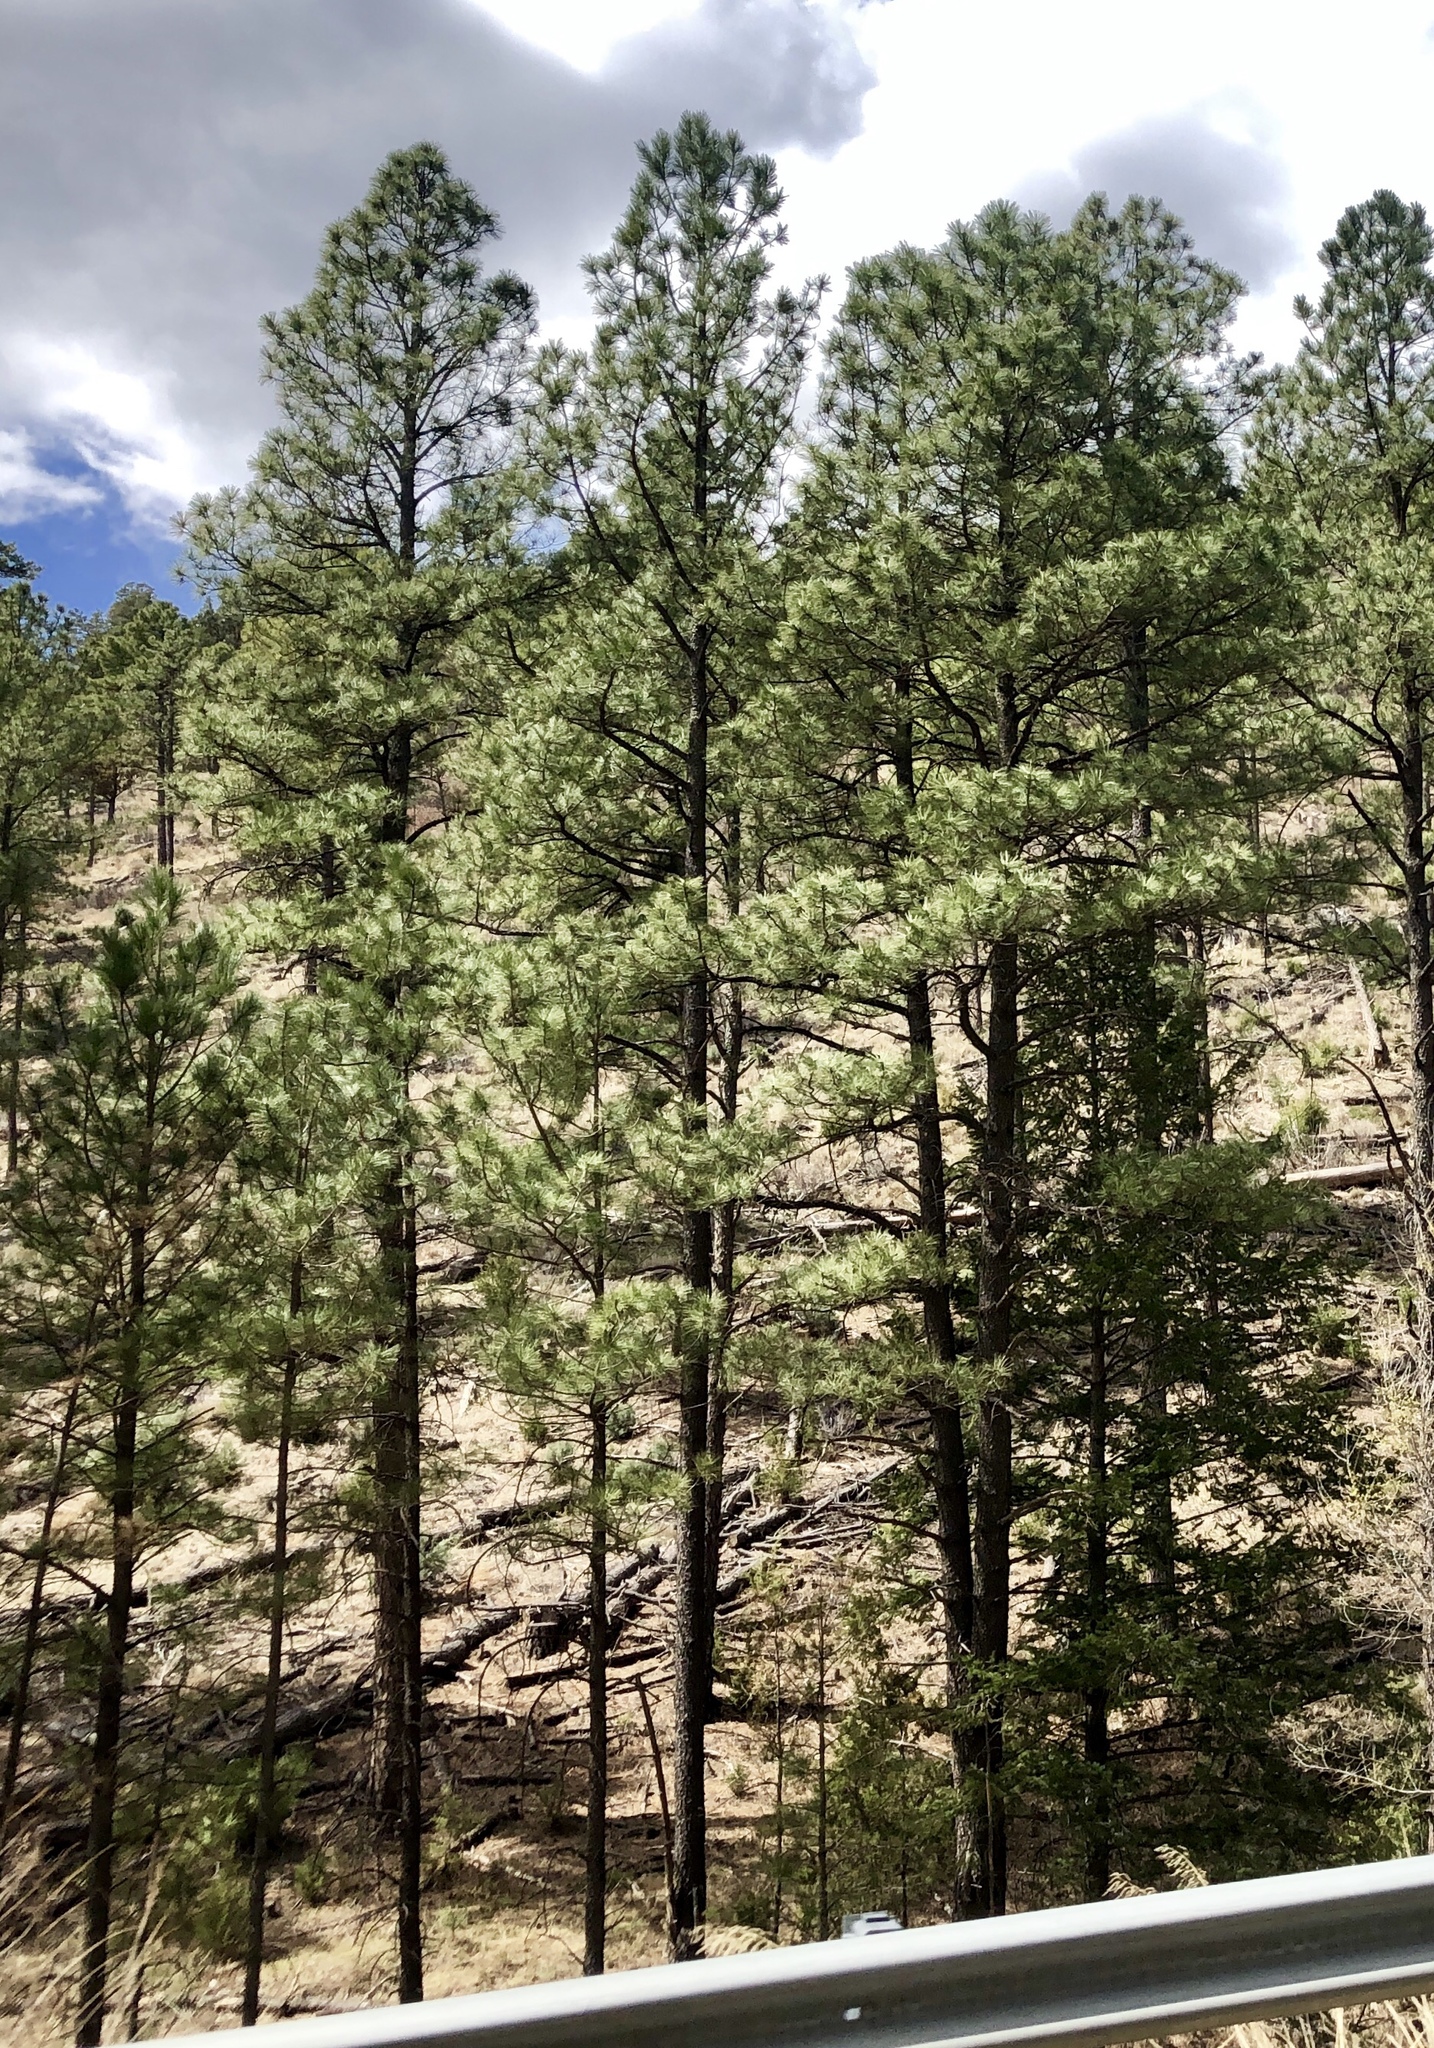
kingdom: Plantae
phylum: Tracheophyta
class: Pinopsida
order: Pinales
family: Pinaceae
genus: Pinus
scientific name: Pinus ponderosa
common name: Western yellow-pine
